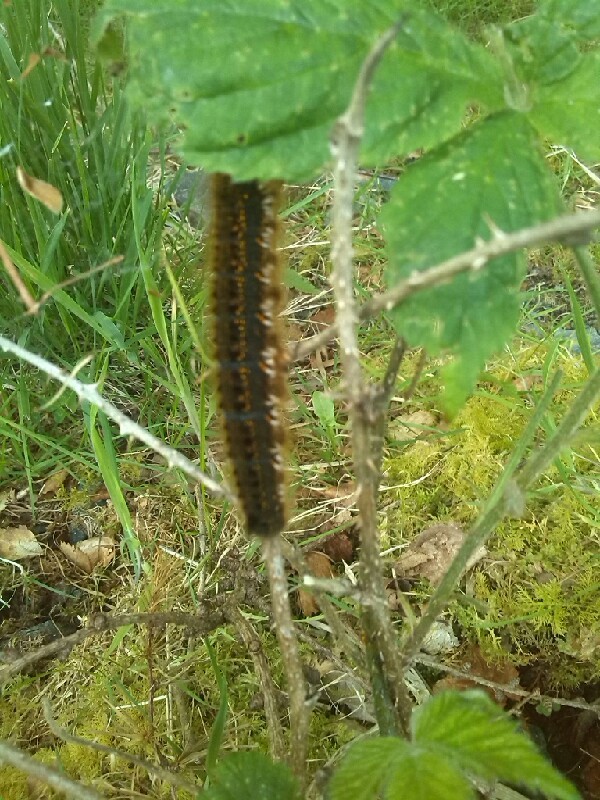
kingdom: Animalia
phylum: Arthropoda
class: Insecta
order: Lepidoptera
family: Lasiocampidae
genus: Euthrix
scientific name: Euthrix potatoria
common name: Drinker
